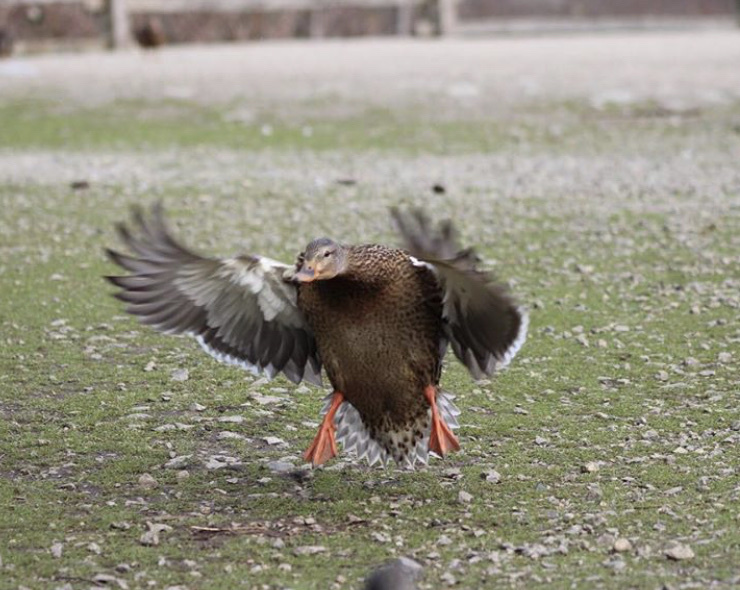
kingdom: Animalia
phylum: Chordata
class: Aves
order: Anseriformes
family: Anatidae
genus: Anas
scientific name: Anas platyrhynchos
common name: Mallard
